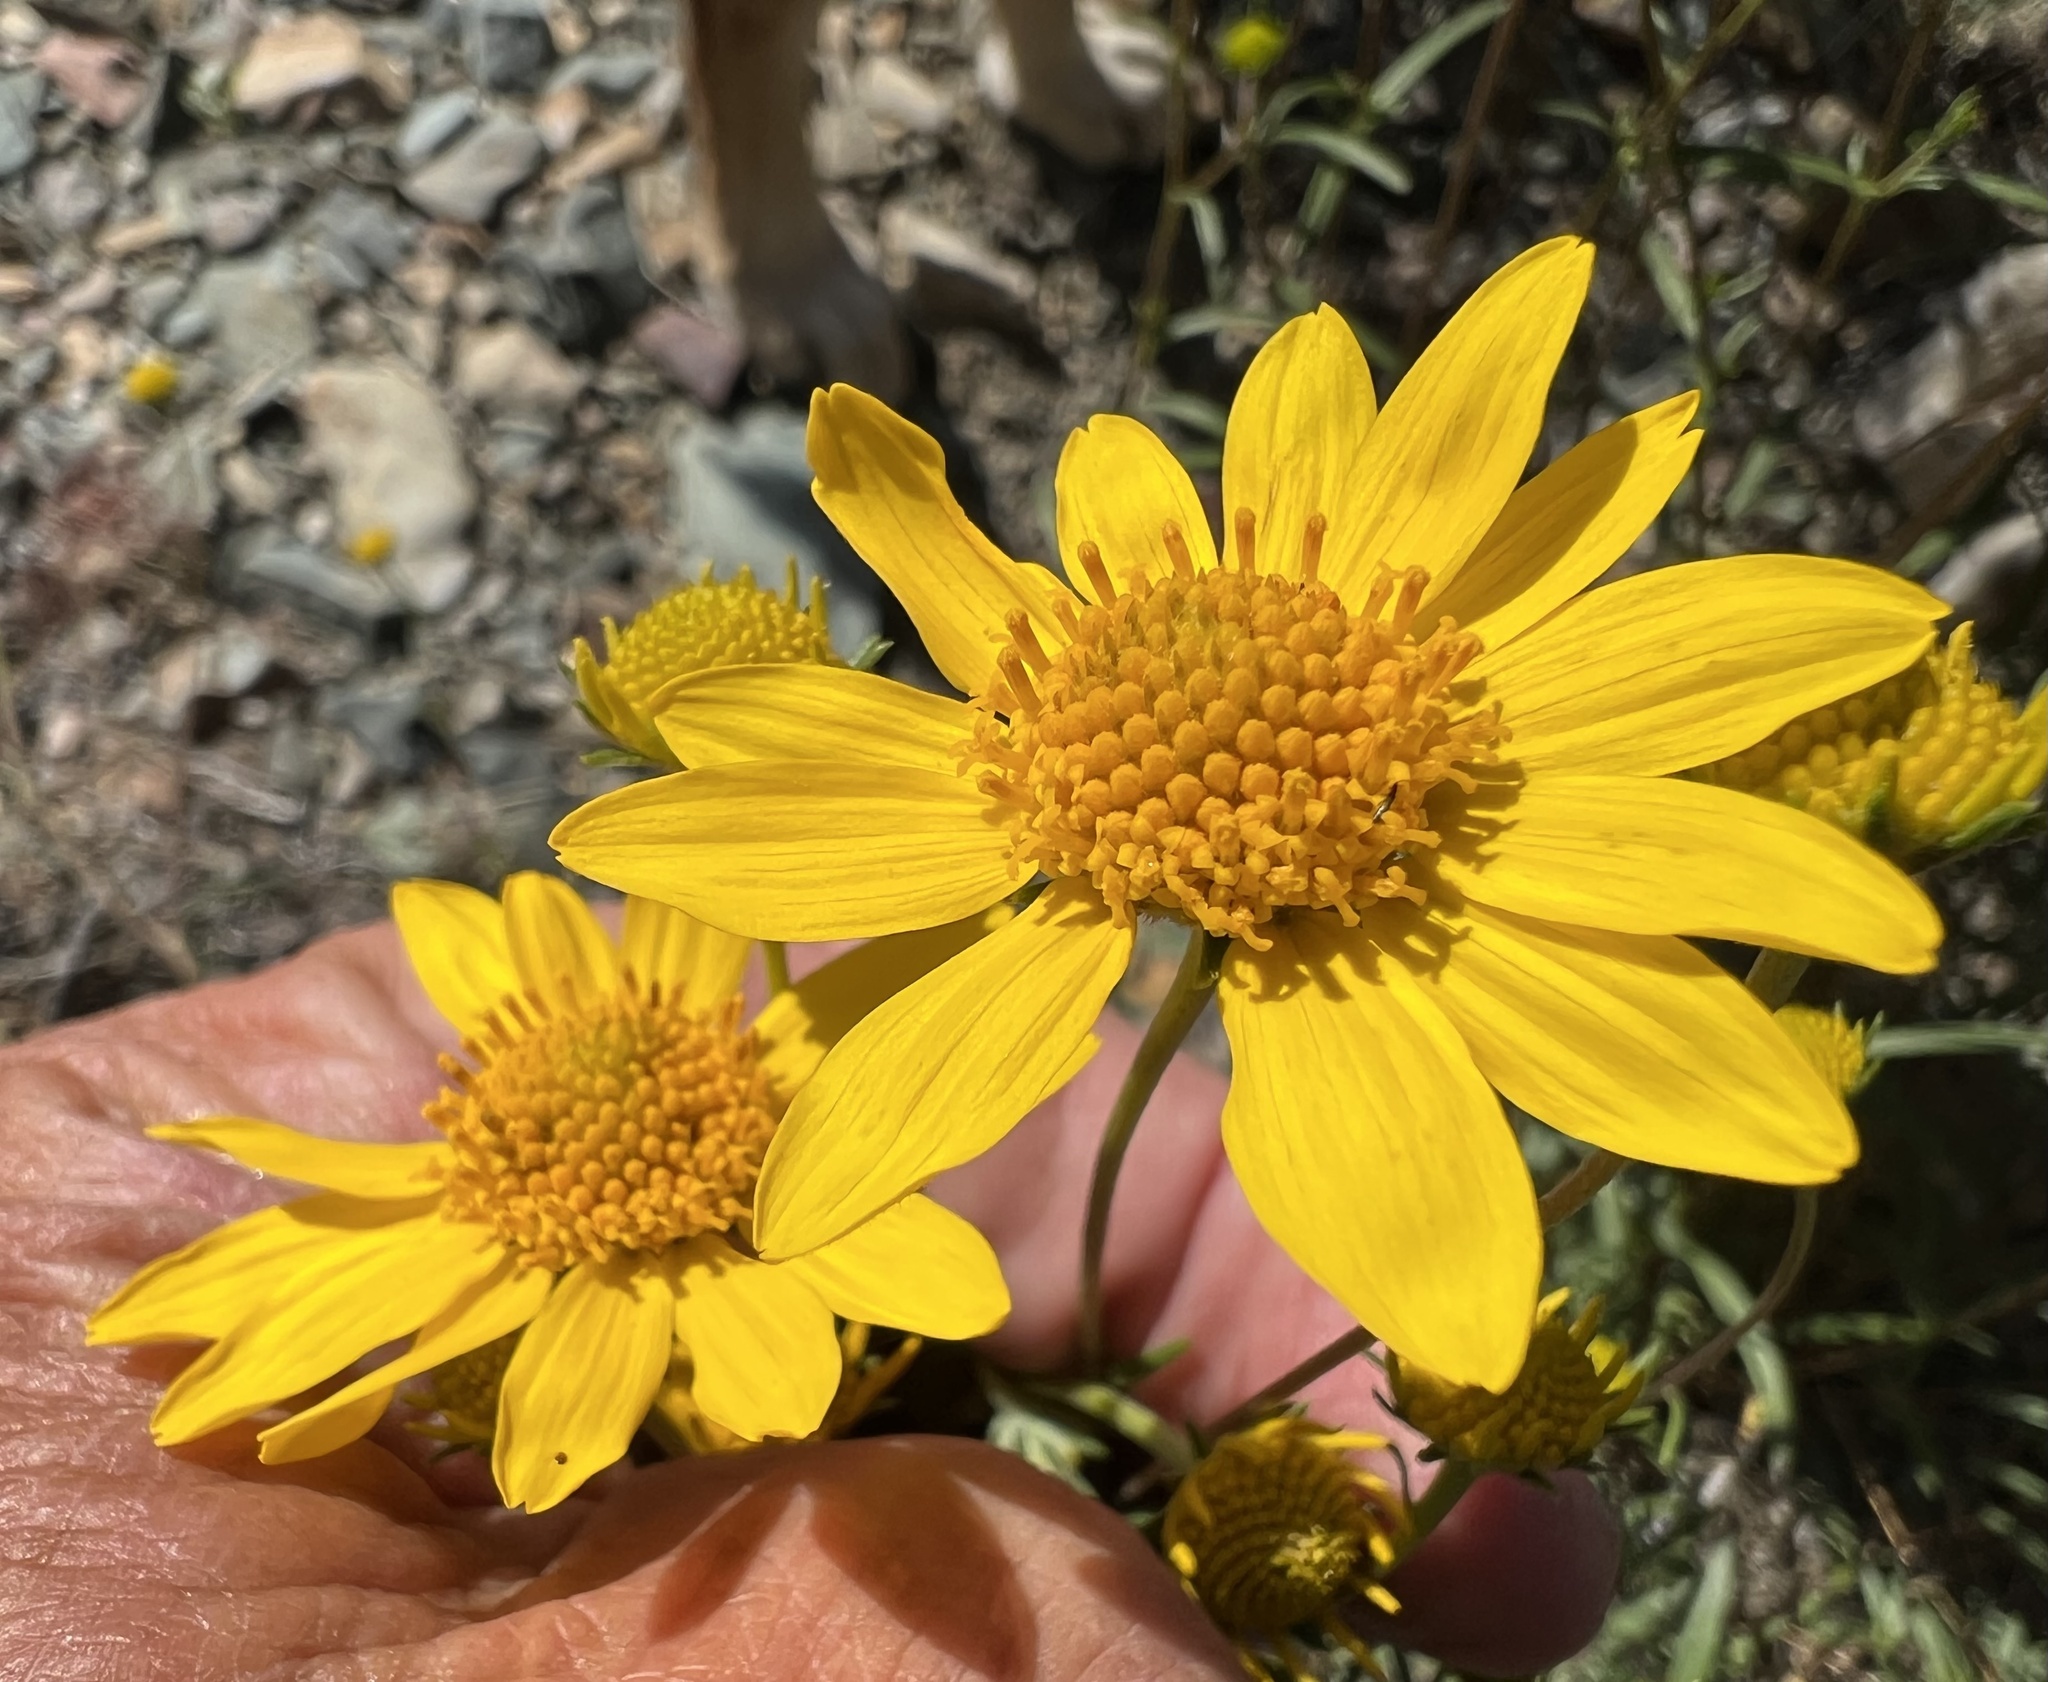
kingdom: Plantae
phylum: Tracheophyta
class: Magnoliopsida
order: Asterales
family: Asteraceae
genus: Heliomeris
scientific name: Heliomeris multiflora
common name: Showy goldeneye
